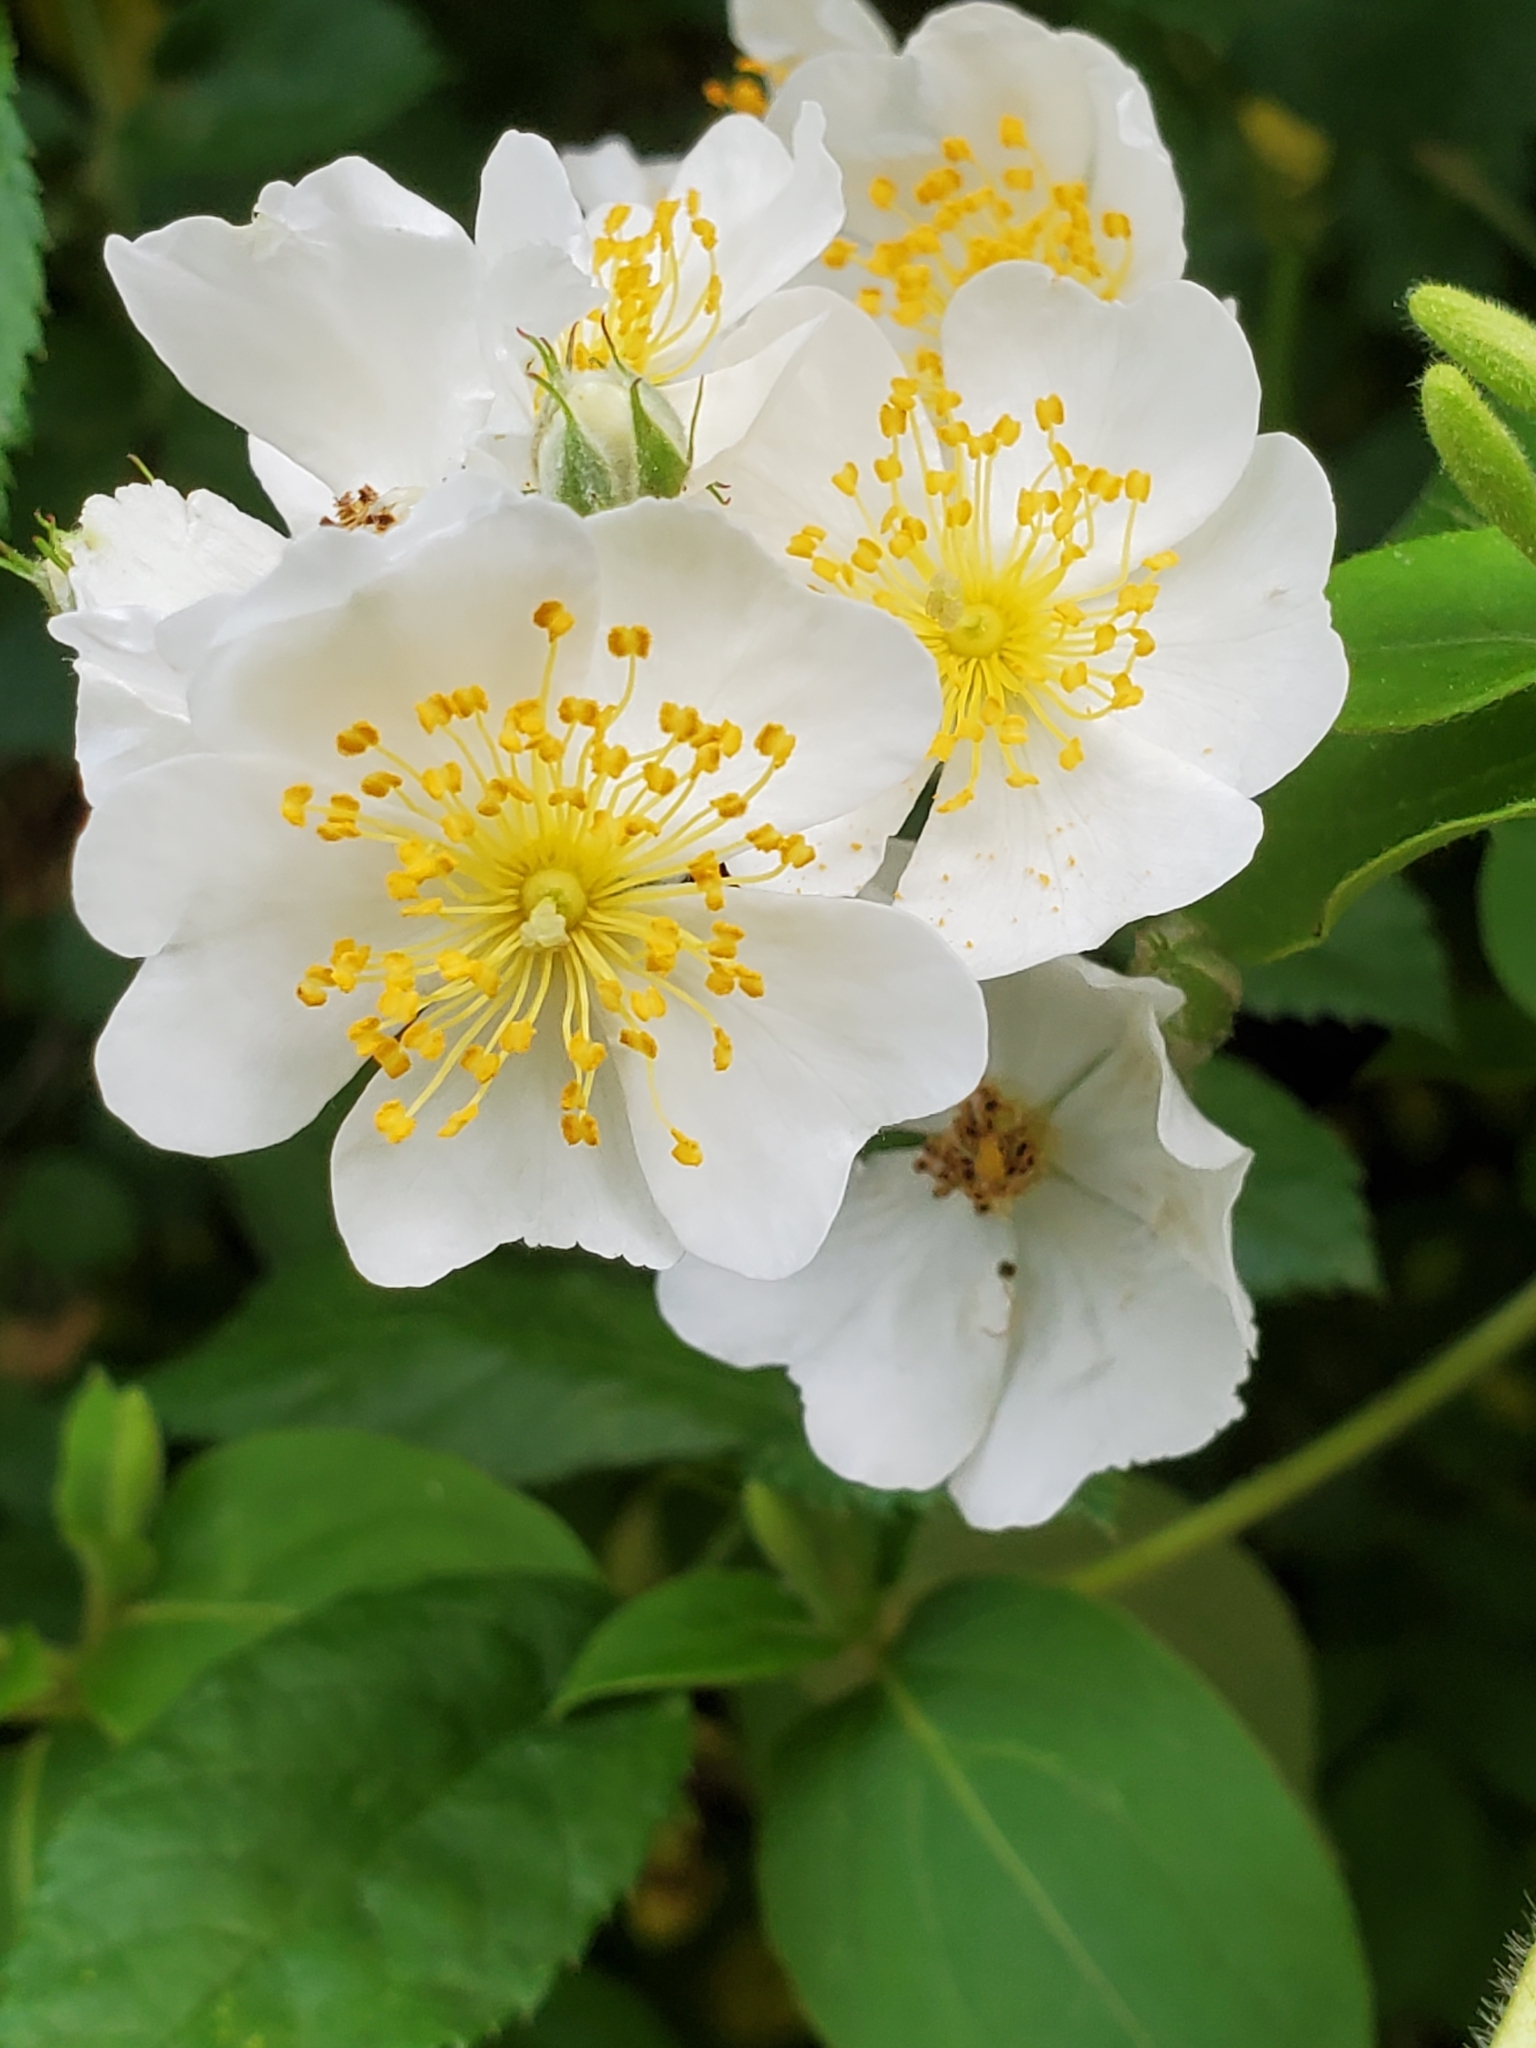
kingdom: Plantae
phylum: Tracheophyta
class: Magnoliopsida
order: Rosales
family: Rosaceae
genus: Rosa
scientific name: Rosa multiflora
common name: Multiflora rose
